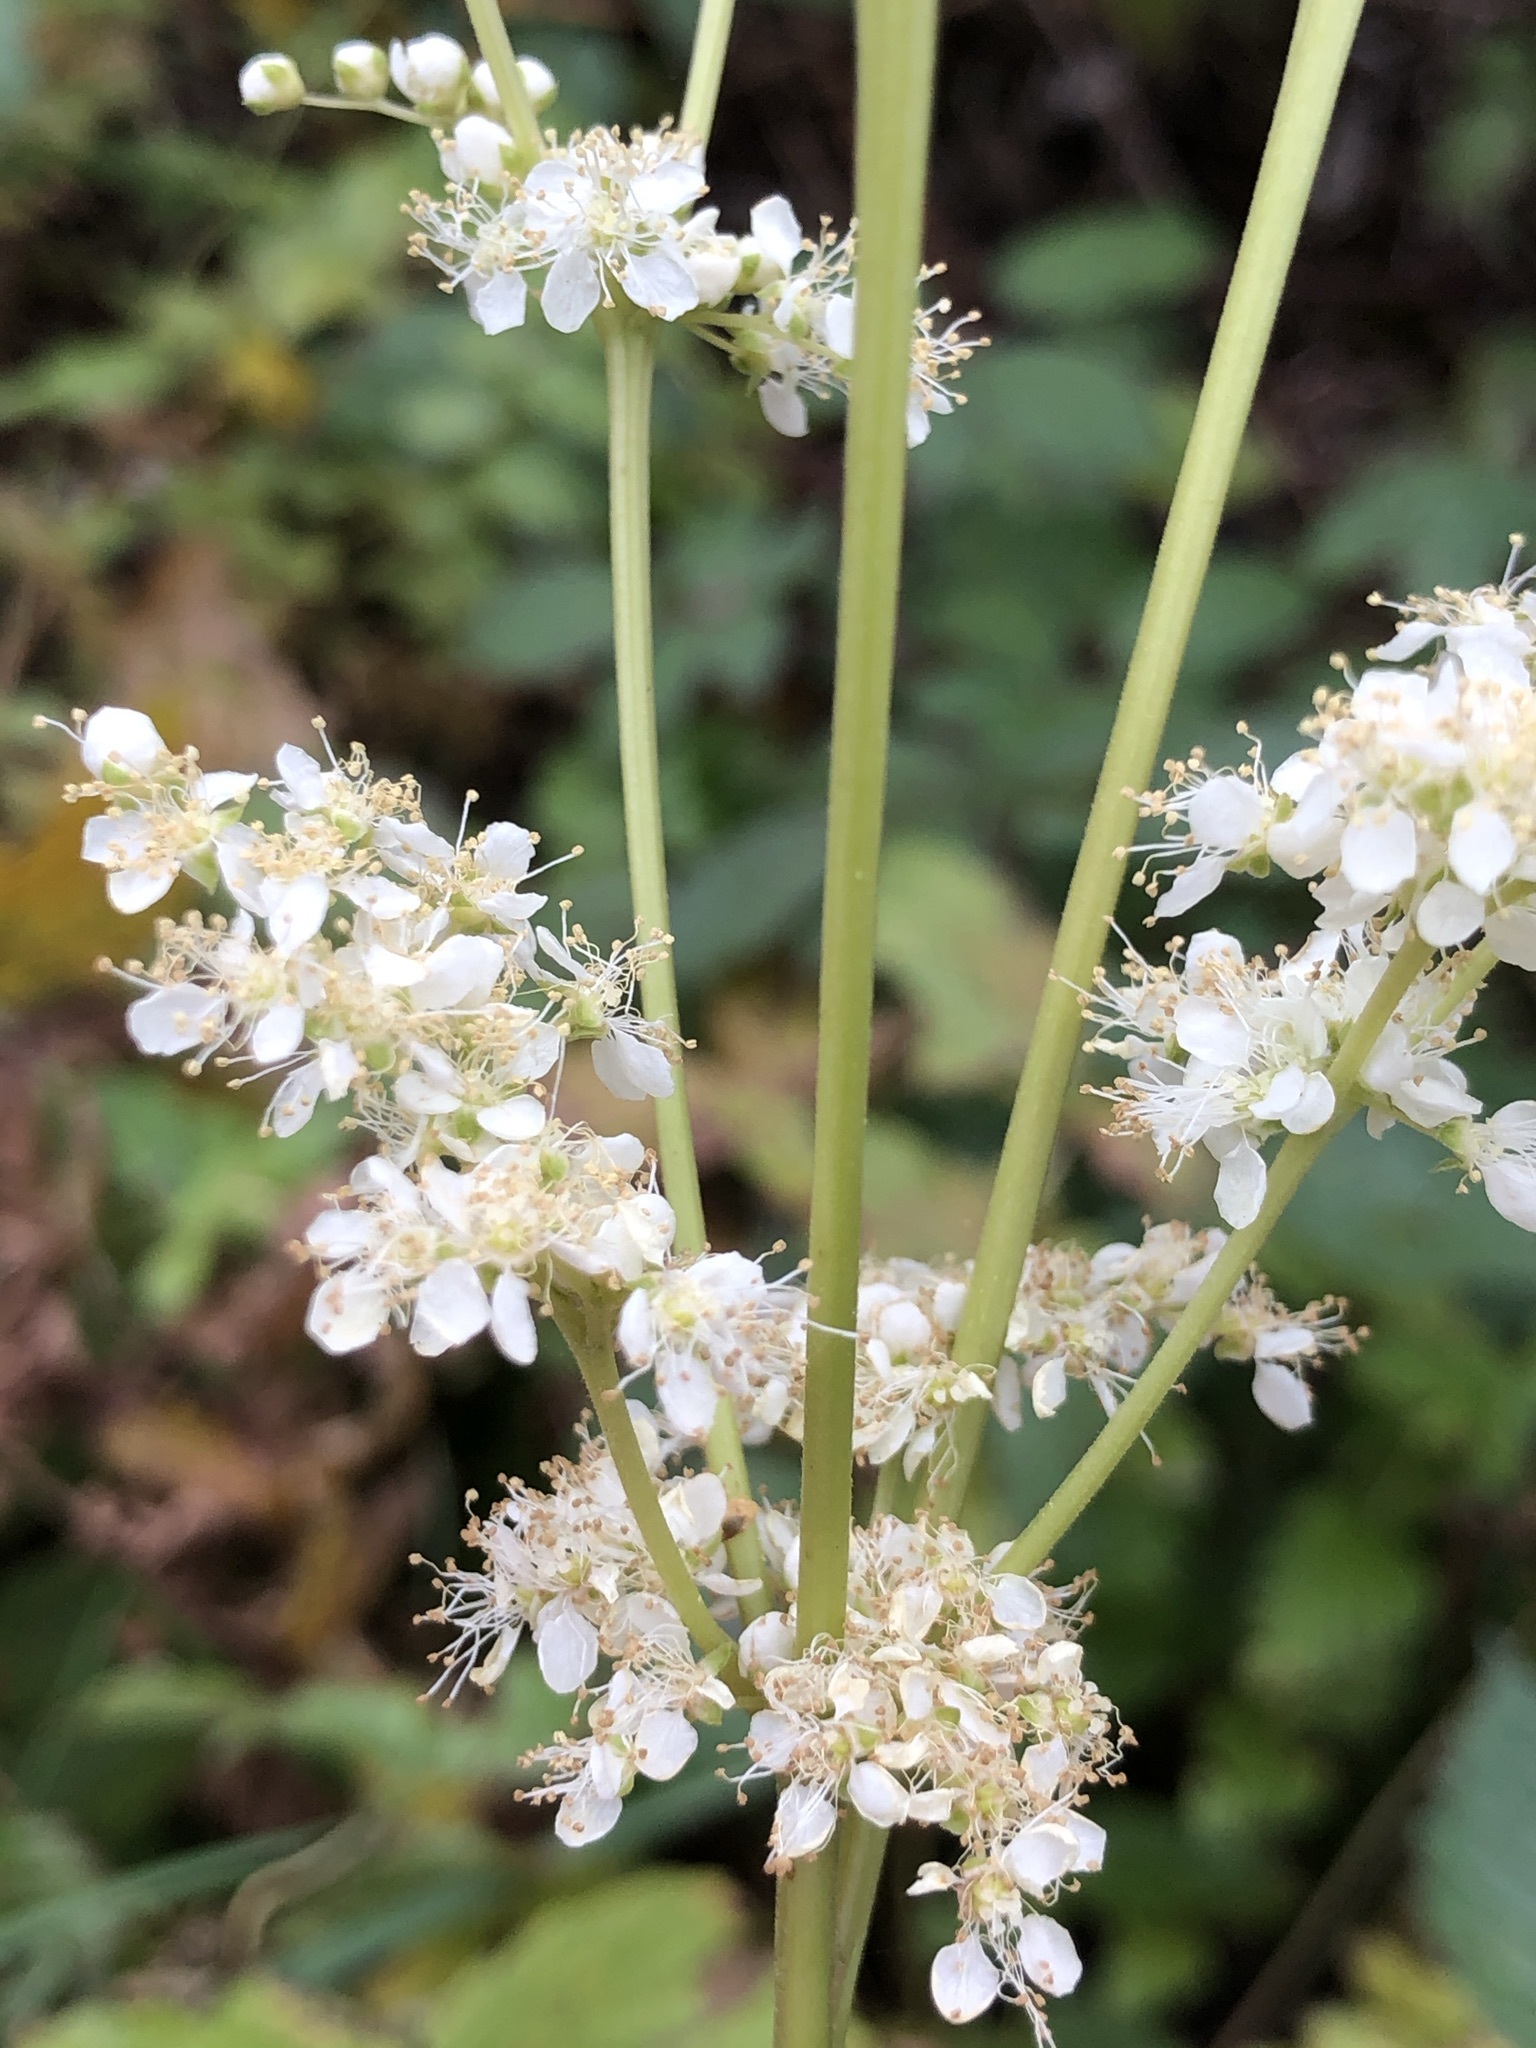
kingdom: Plantae
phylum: Tracheophyta
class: Magnoliopsida
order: Rosales
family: Rosaceae
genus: Filipendula
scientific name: Filipendula ulmaria
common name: Meadowsweet
